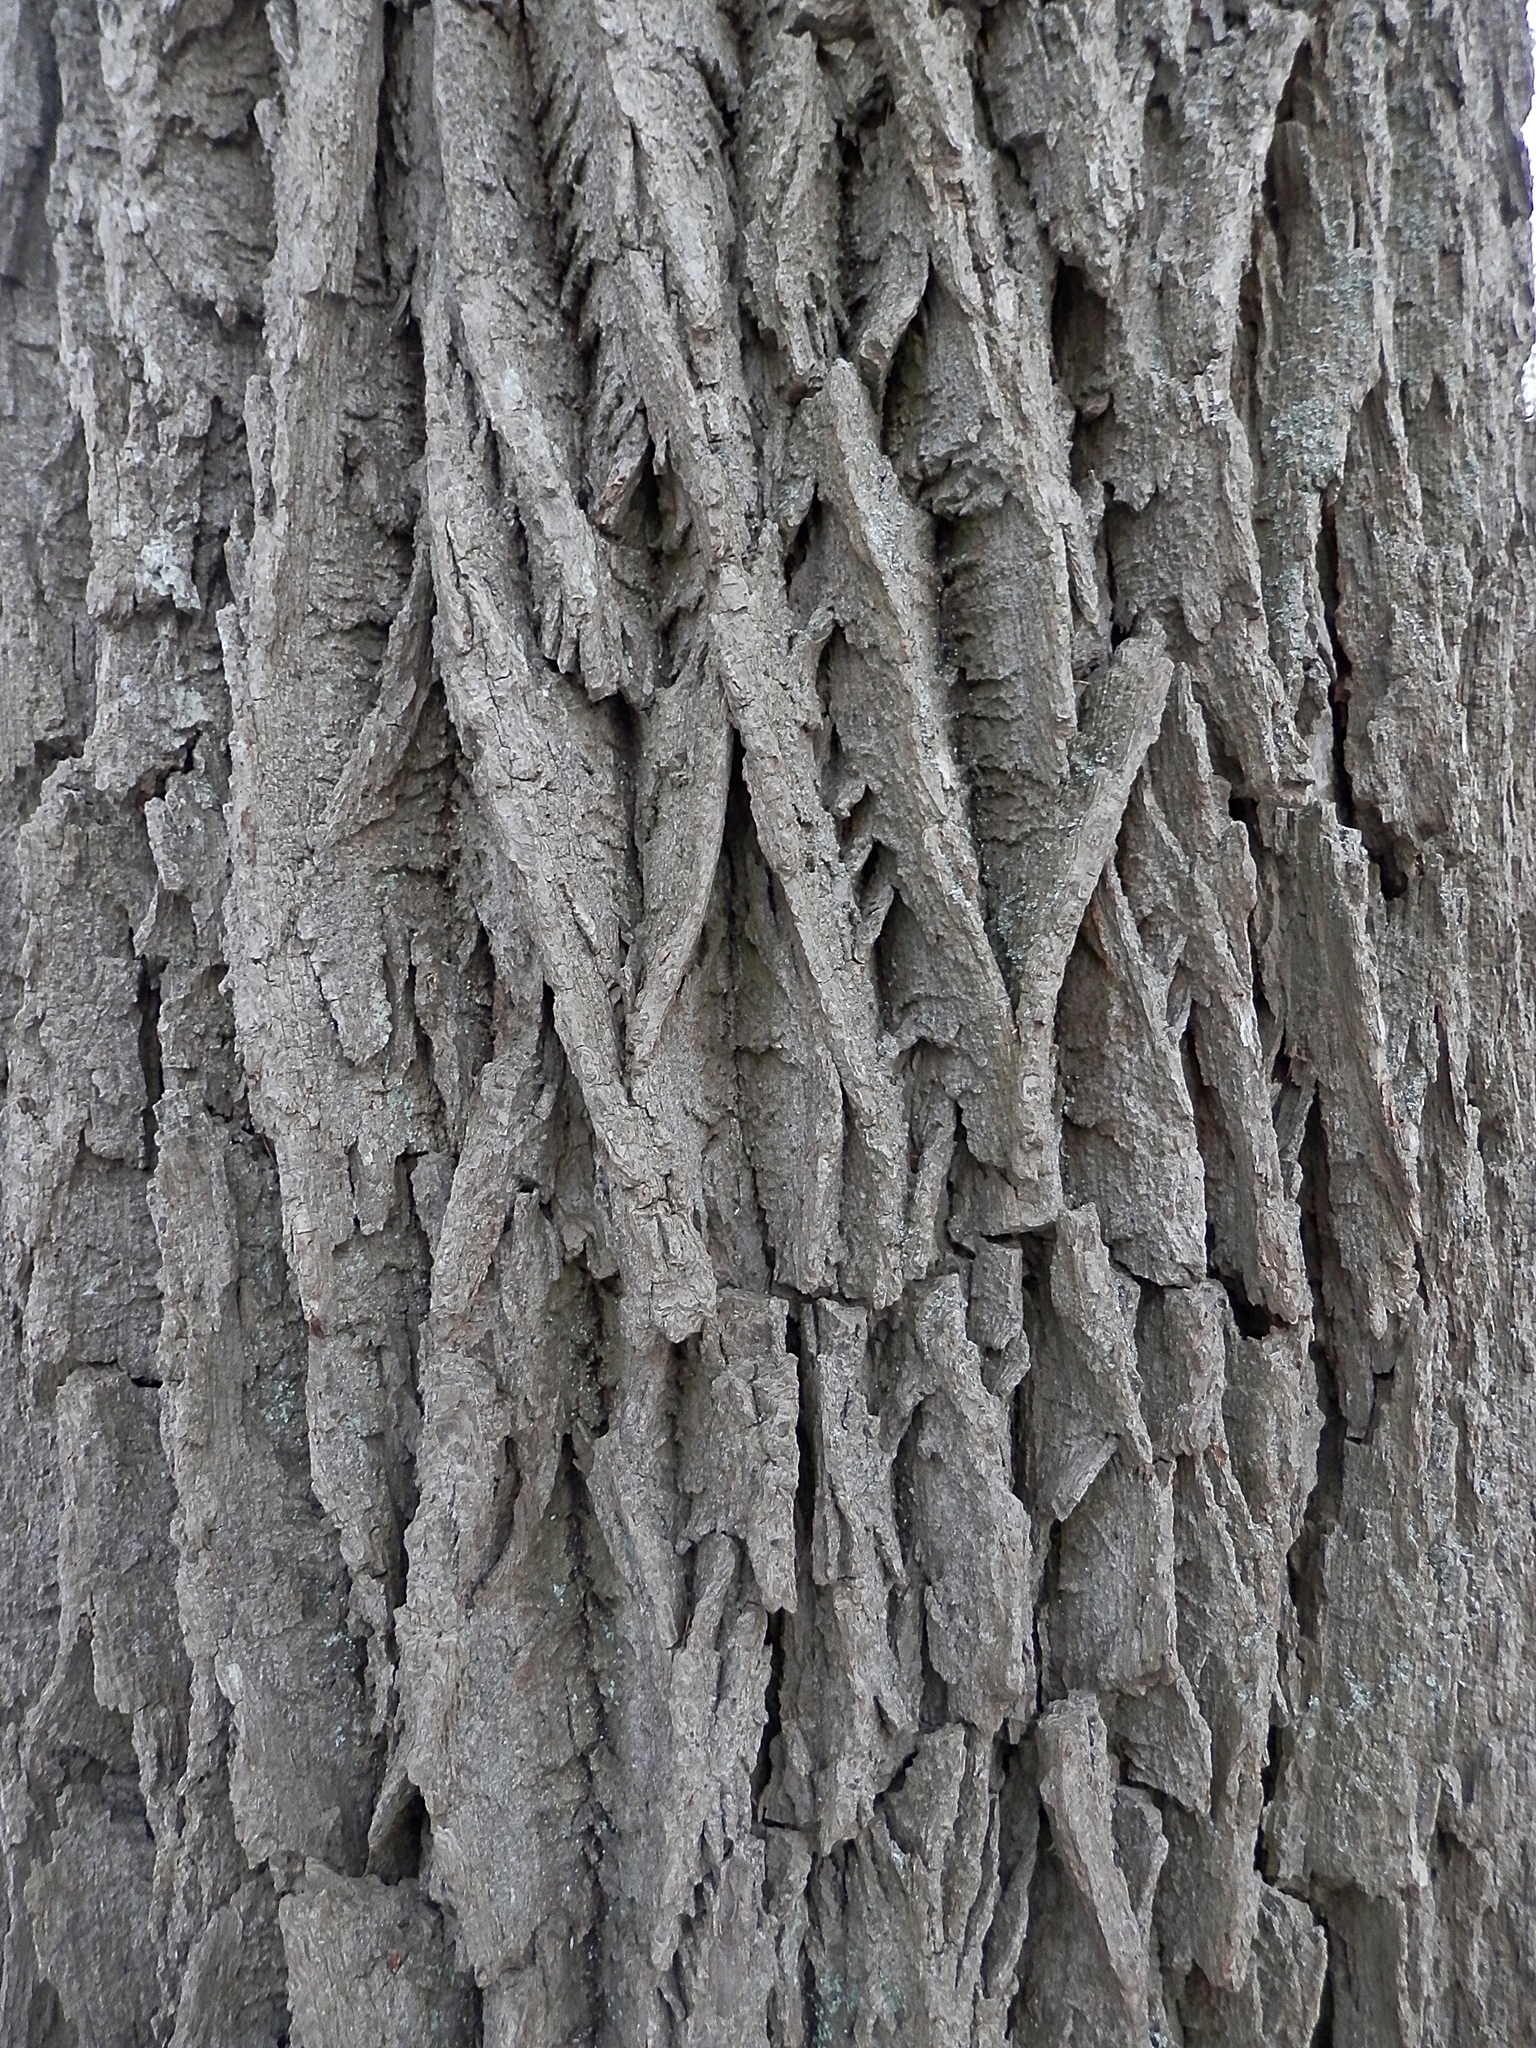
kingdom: Plantae
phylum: Tracheophyta
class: Magnoliopsida
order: Lamiales
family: Oleaceae
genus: Fraxinus
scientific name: Fraxinus americana
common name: White ash
